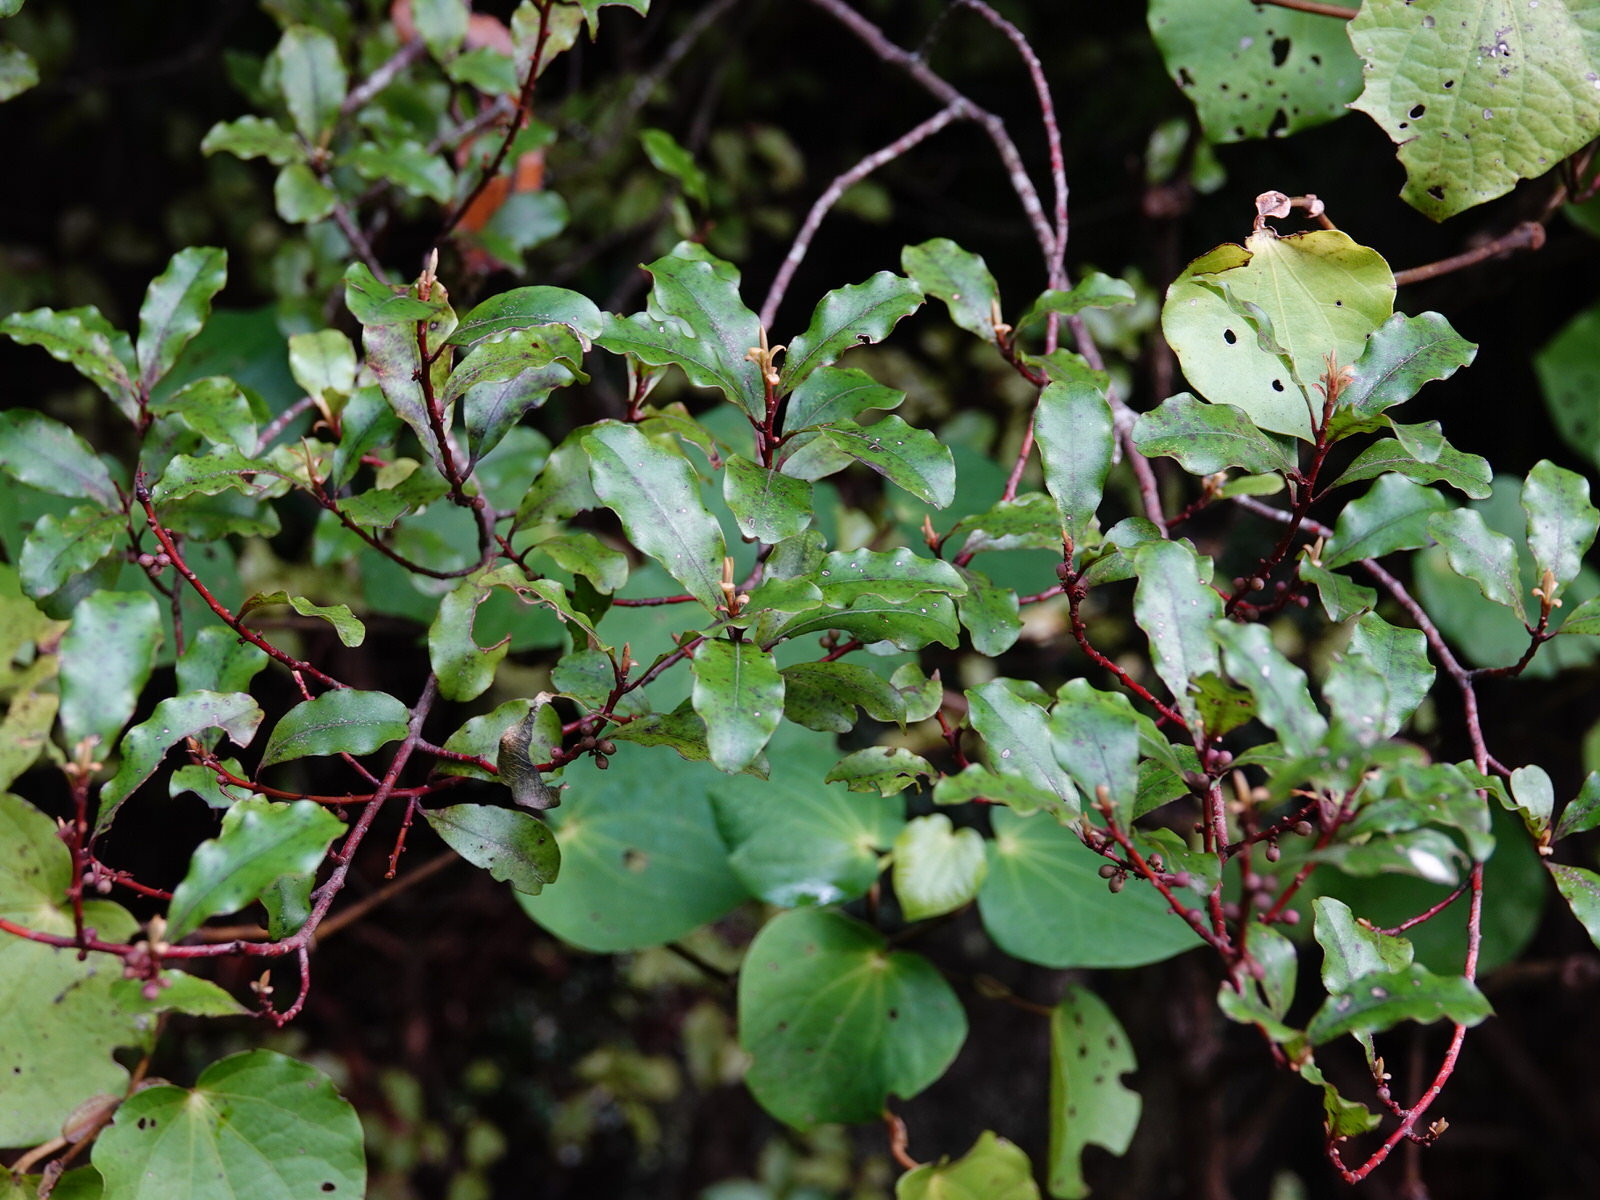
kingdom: Plantae
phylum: Tracheophyta
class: Magnoliopsida
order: Ericales
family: Primulaceae
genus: Myrsine
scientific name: Myrsine australis
